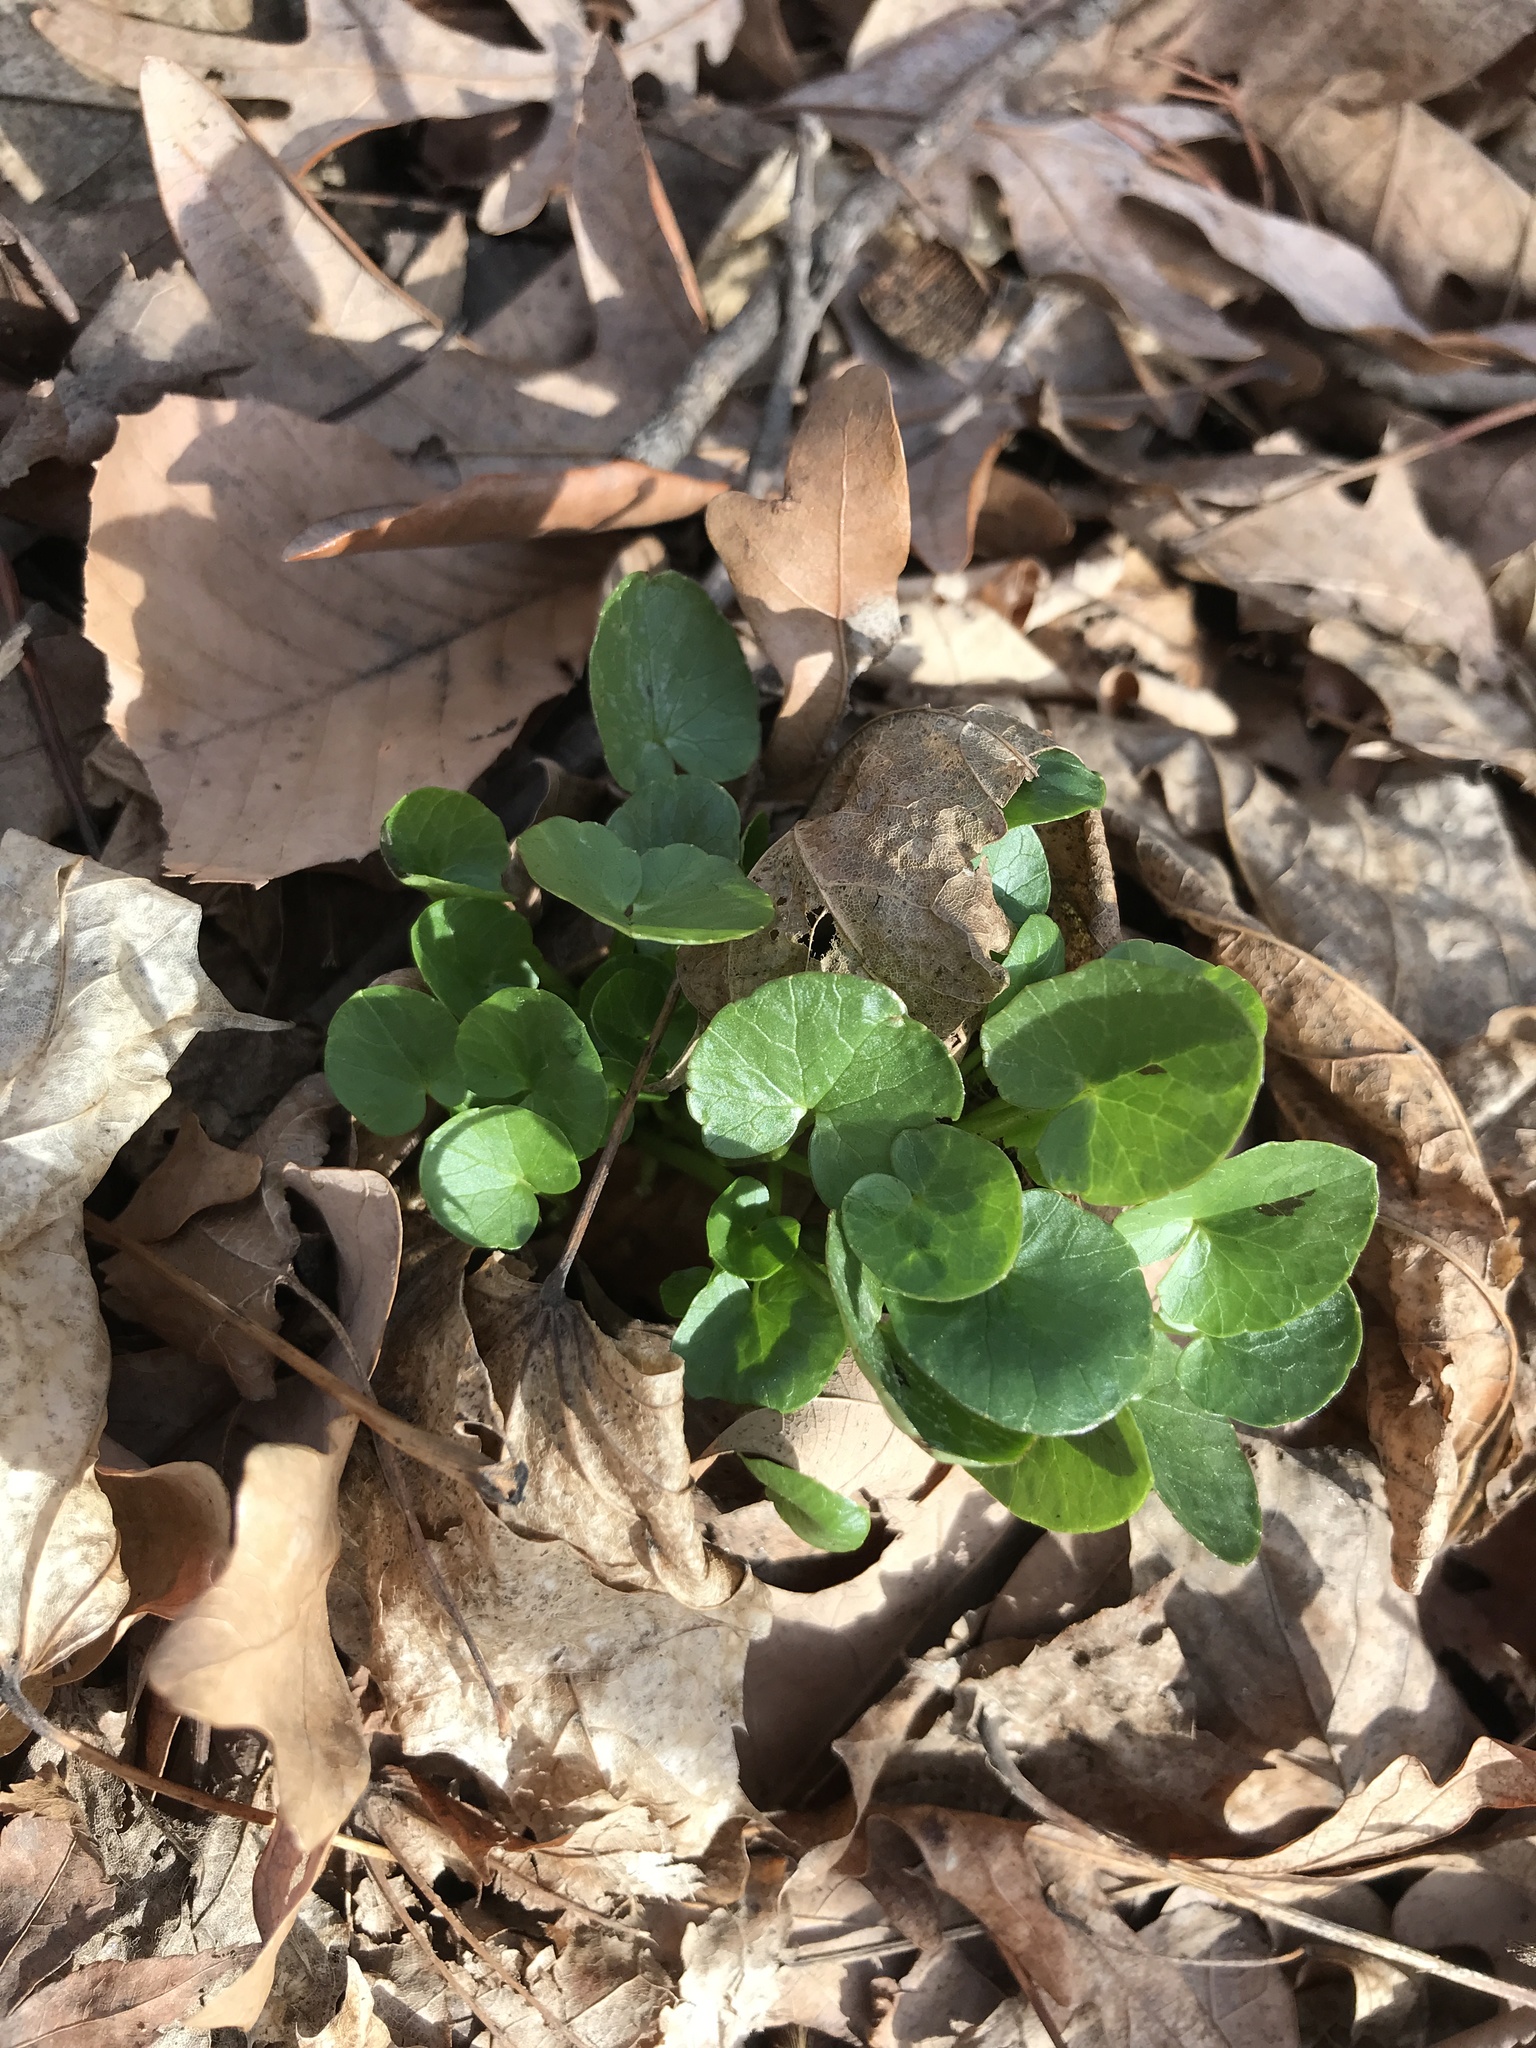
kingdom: Plantae
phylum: Tracheophyta
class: Magnoliopsida
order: Ranunculales
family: Ranunculaceae
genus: Ficaria
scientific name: Ficaria verna
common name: Lesser celandine
